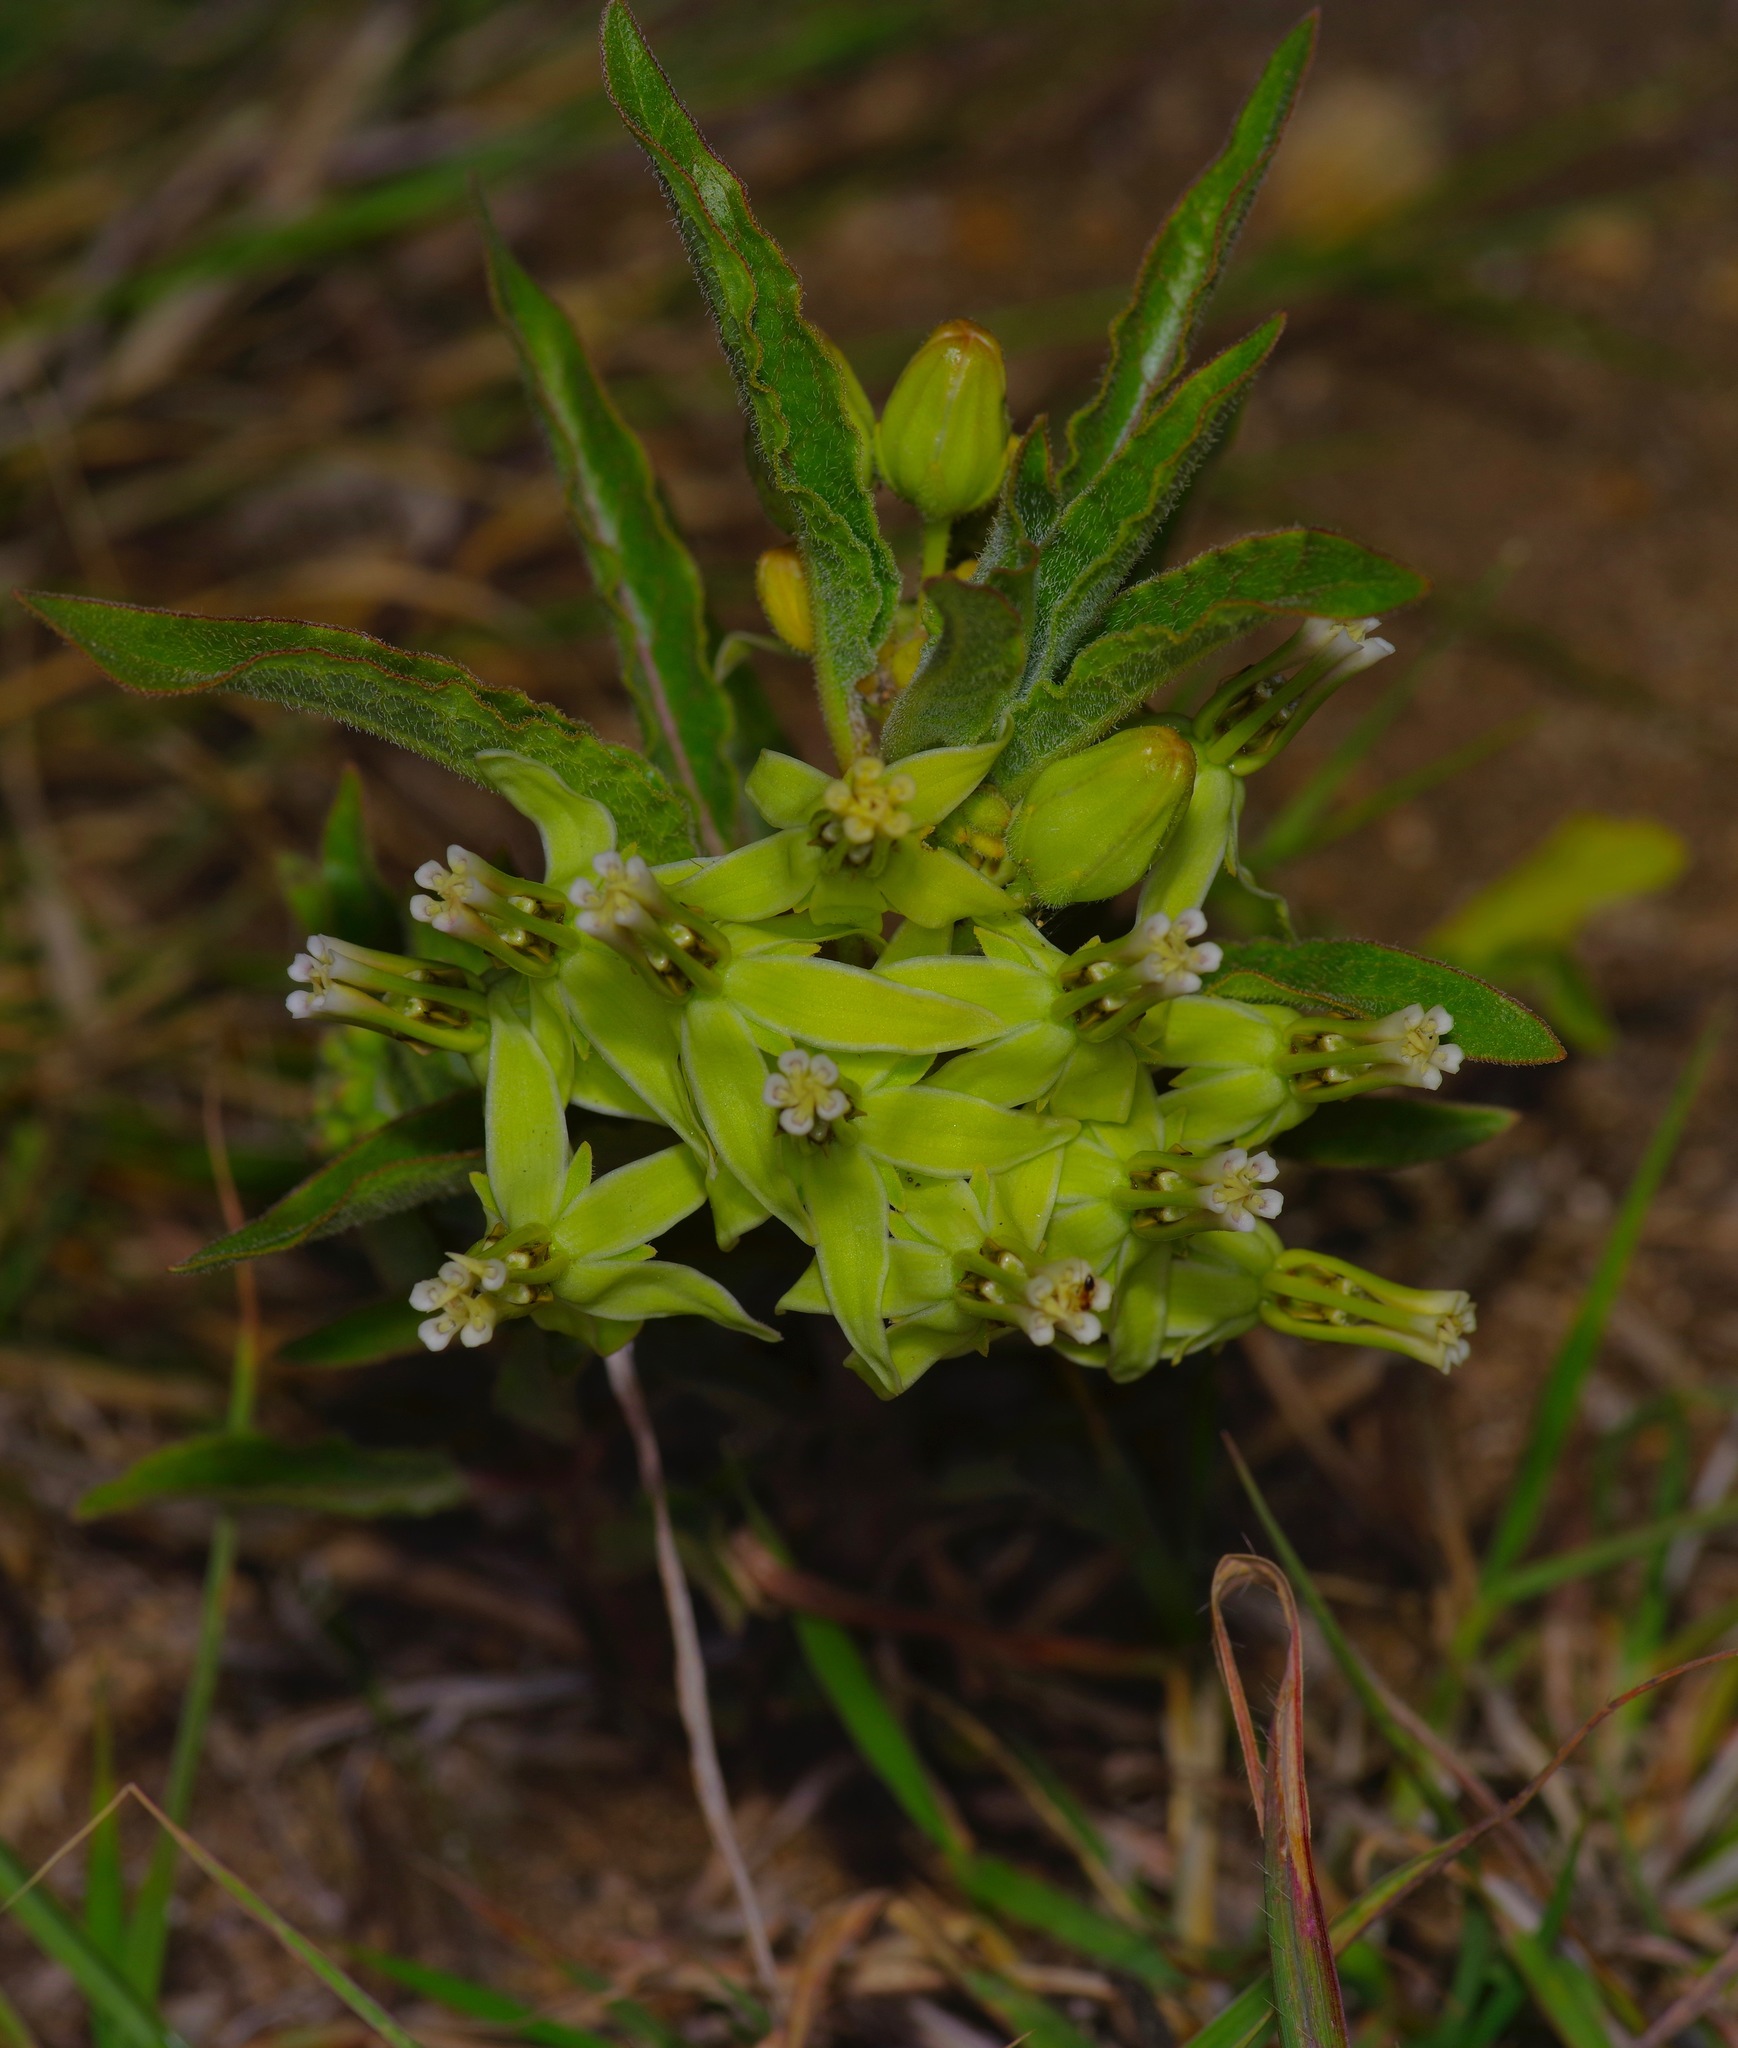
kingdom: Plantae
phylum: Tracheophyta
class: Magnoliopsida
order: Gentianales
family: Apocynaceae
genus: Asclepias
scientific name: Asclepias oenotheroides
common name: Zizotes milkweed
